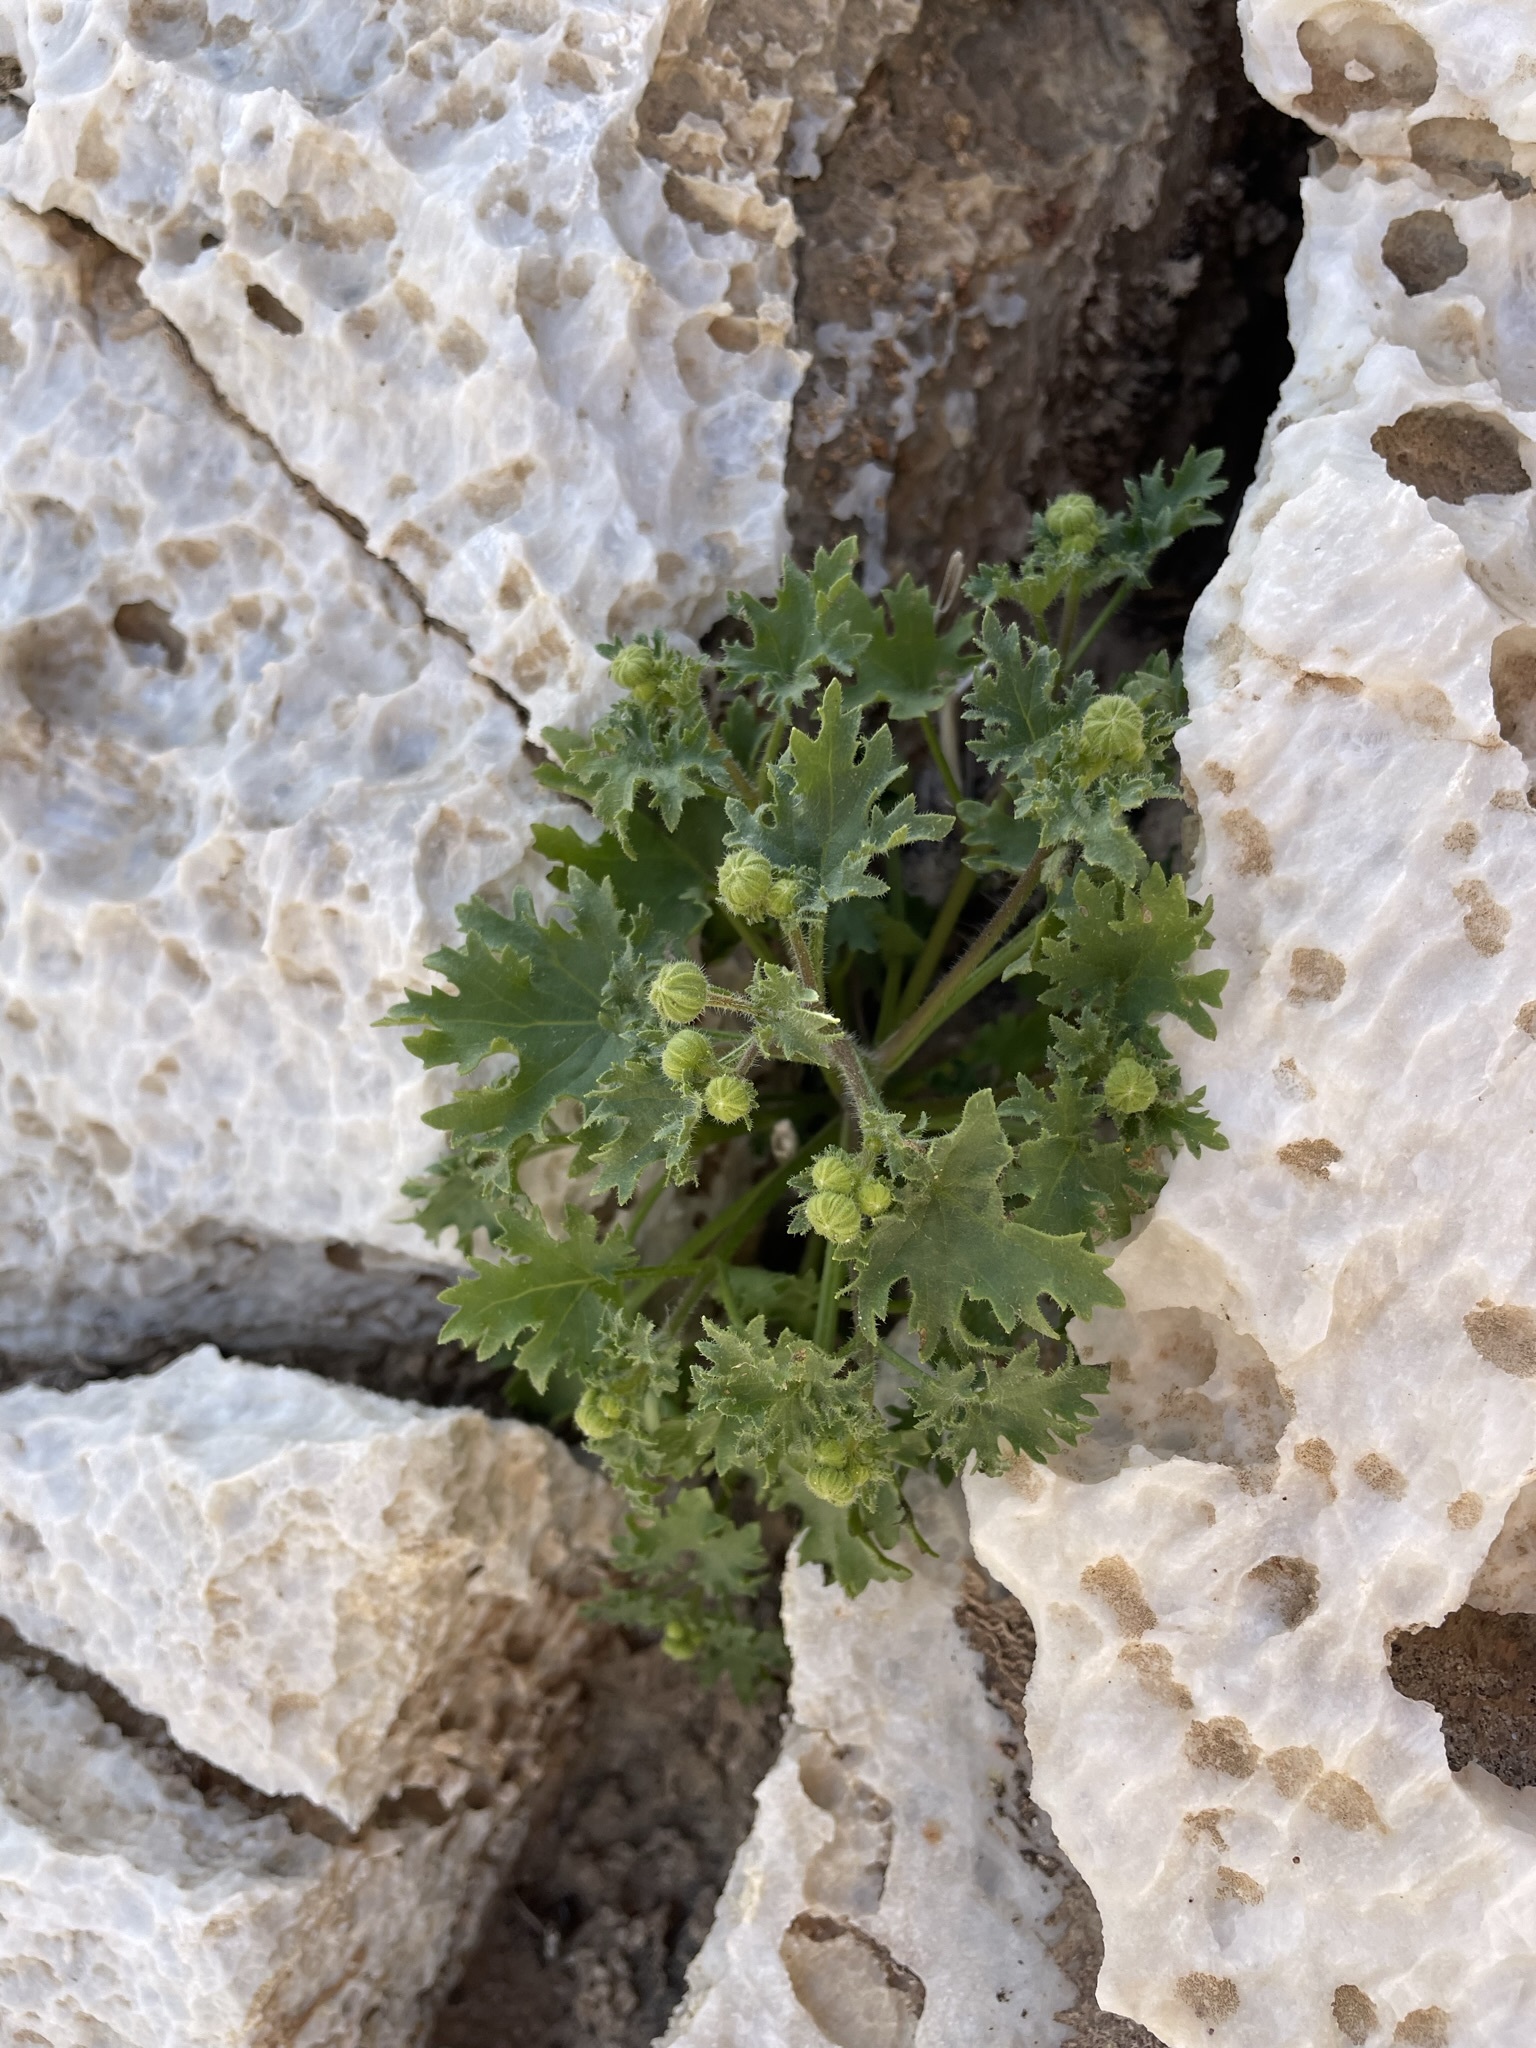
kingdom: Plantae
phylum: Tracheophyta
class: Magnoliopsida
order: Asterales
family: Asteraceae
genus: Laphamia
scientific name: Laphamia emoryi
